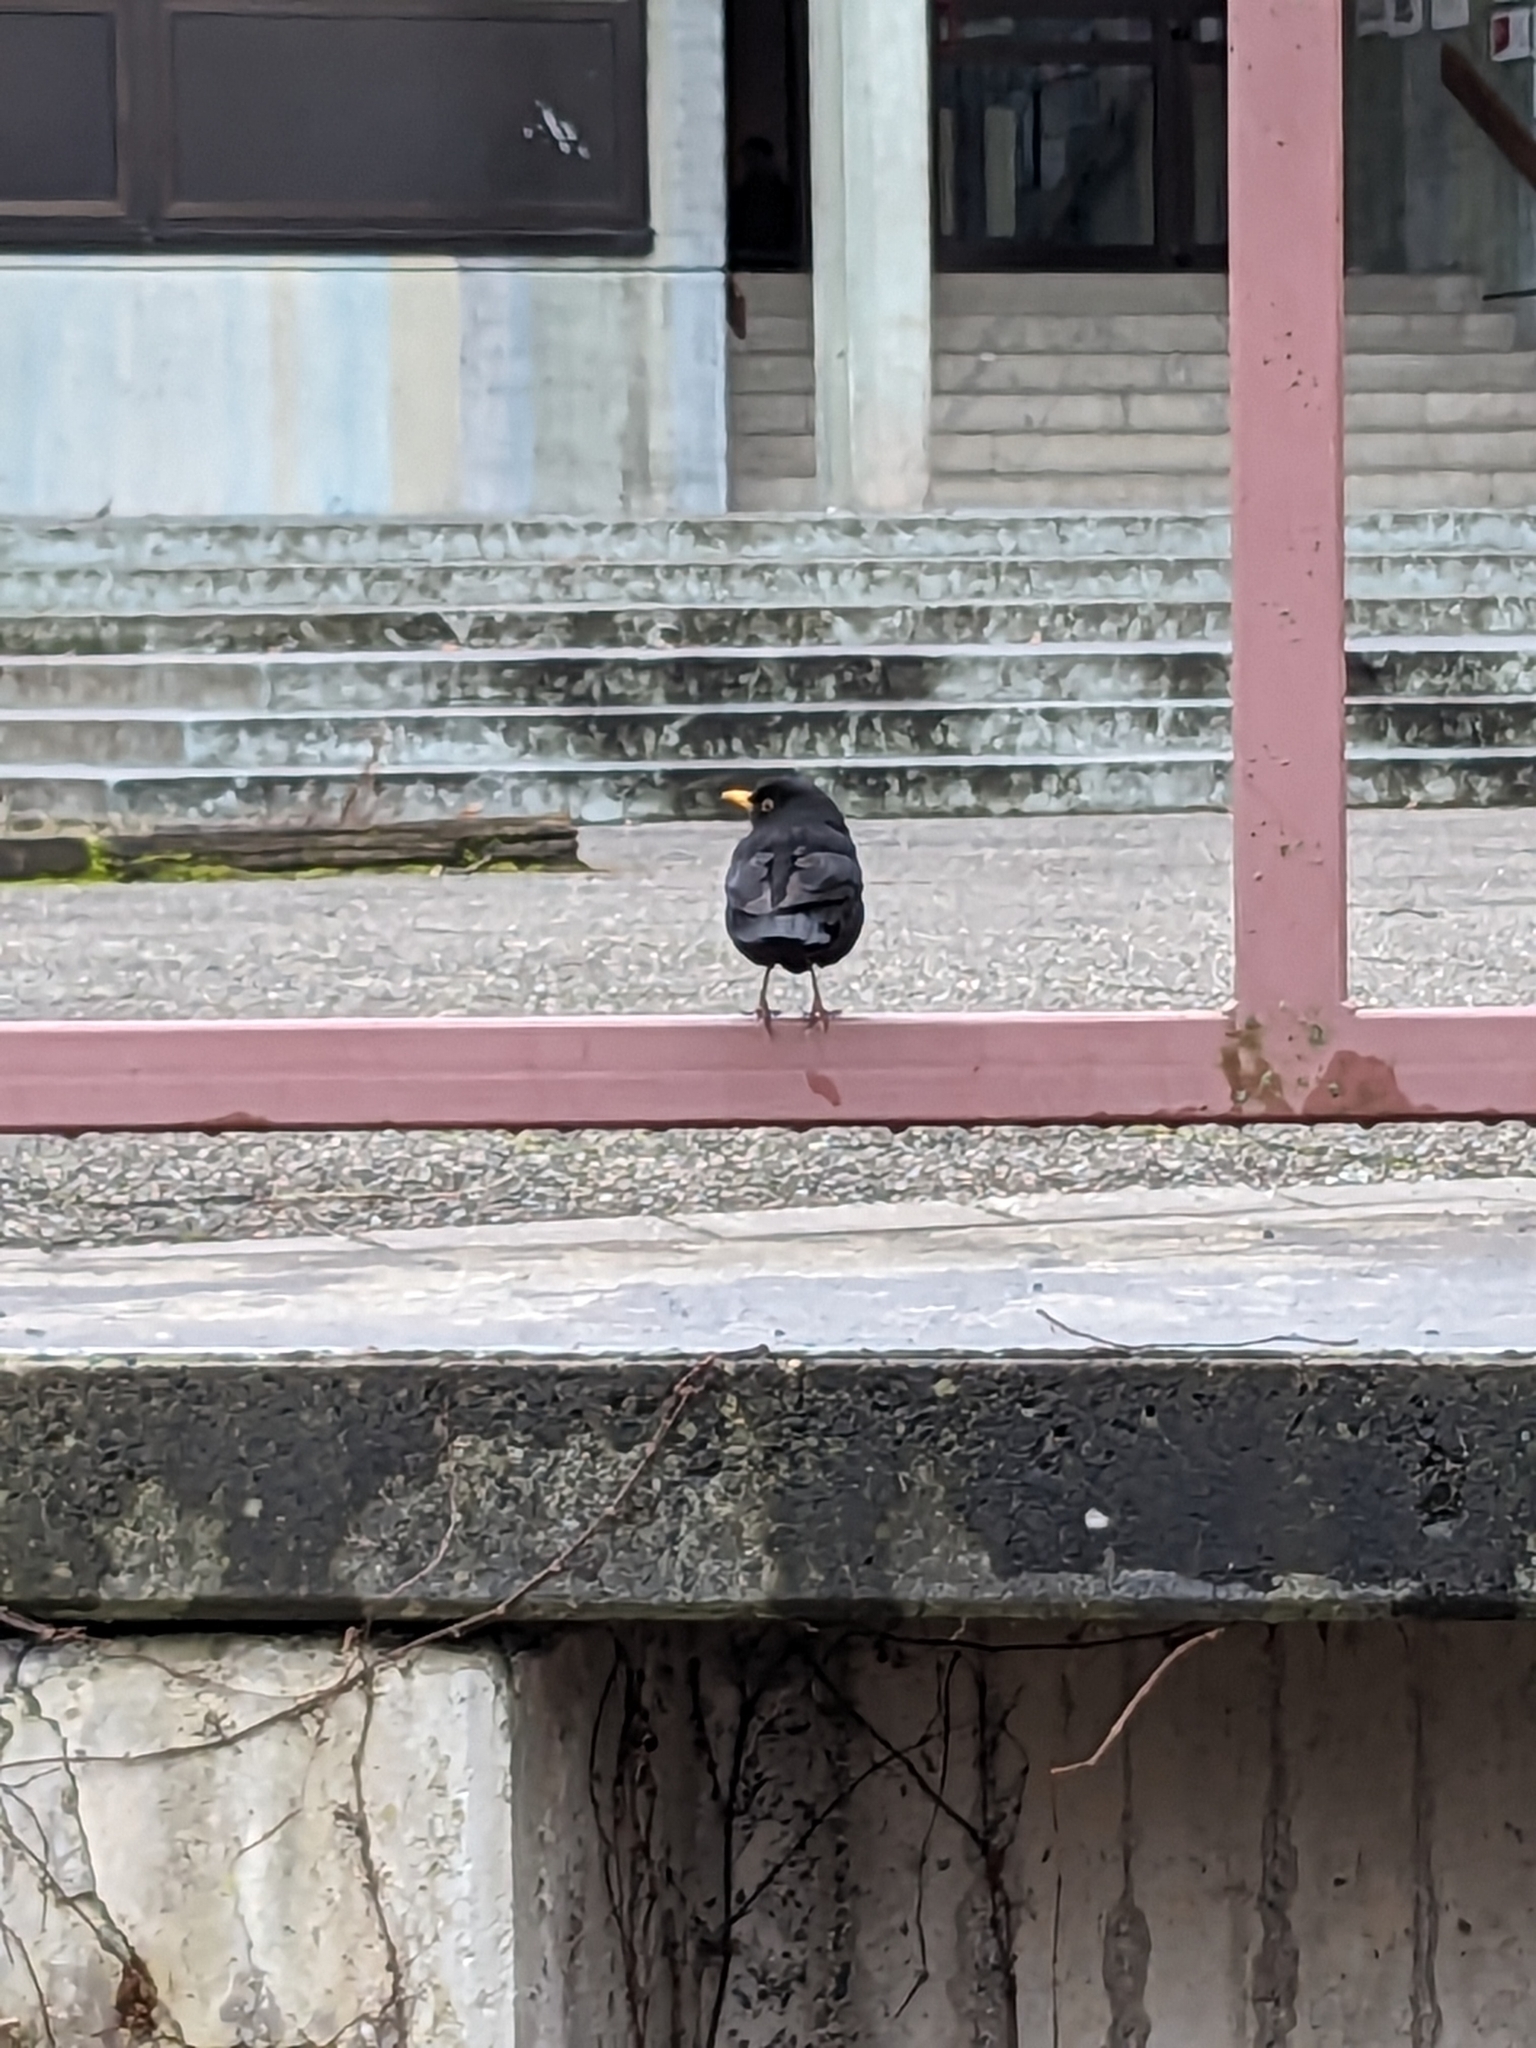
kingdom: Animalia
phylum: Chordata
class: Aves
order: Passeriformes
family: Turdidae
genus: Turdus
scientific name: Turdus merula
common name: Common blackbird
